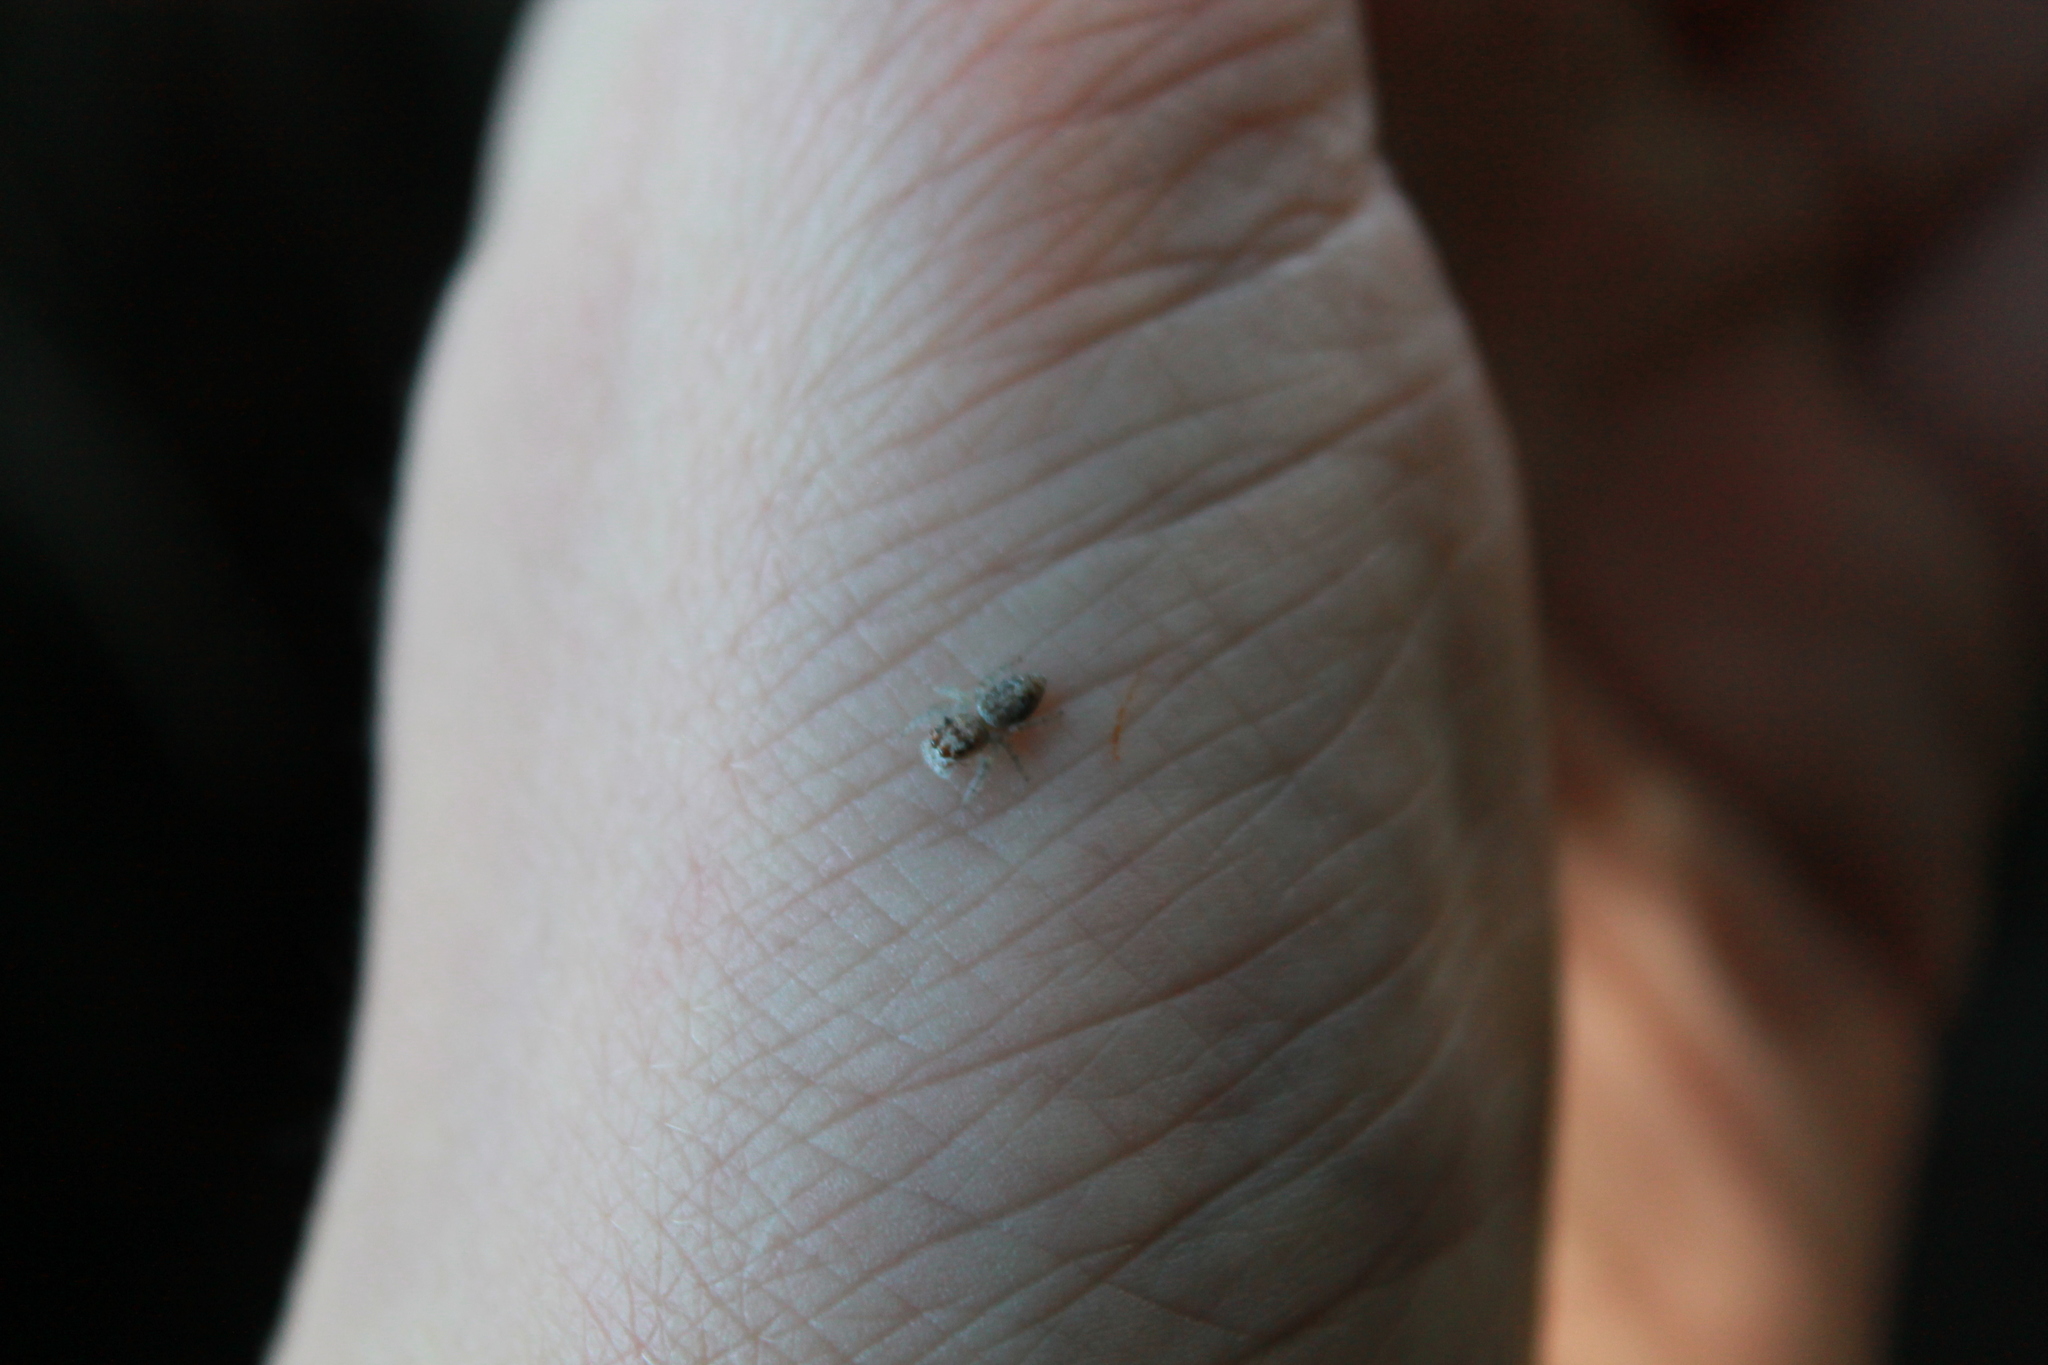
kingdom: Animalia
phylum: Arthropoda
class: Arachnida
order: Araneae
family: Salticidae
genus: Opisthoncus
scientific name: Opisthoncus polyphemus
